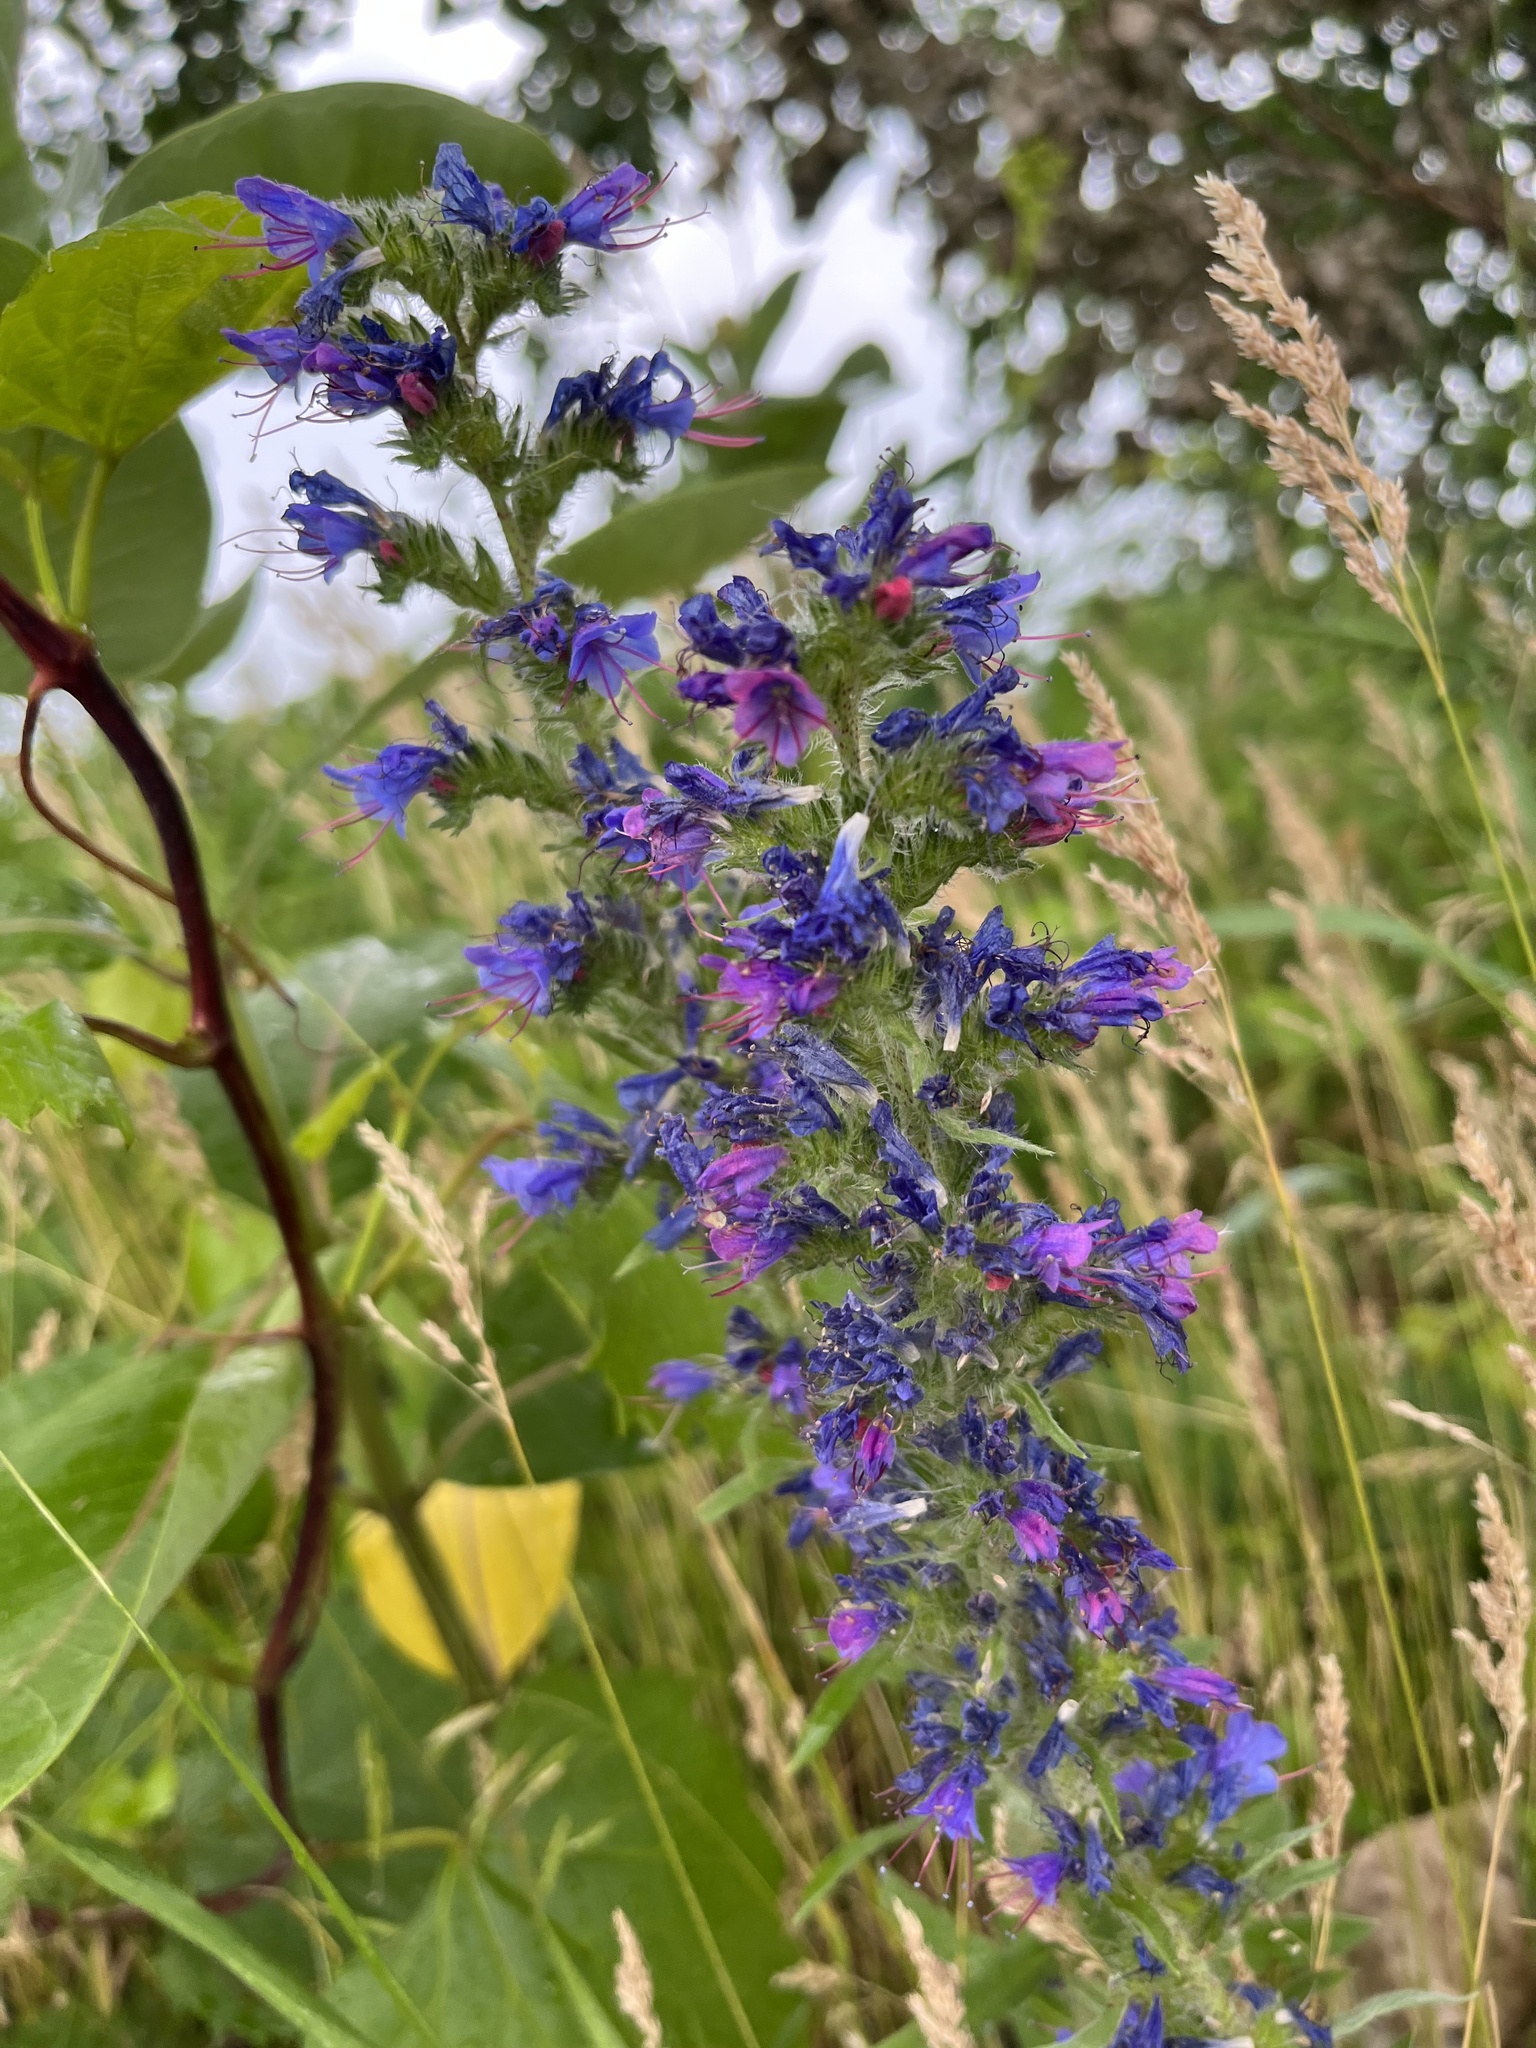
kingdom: Plantae
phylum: Tracheophyta
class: Magnoliopsida
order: Boraginales
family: Boraginaceae
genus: Echium
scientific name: Echium vulgare
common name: Common viper's bugloss
